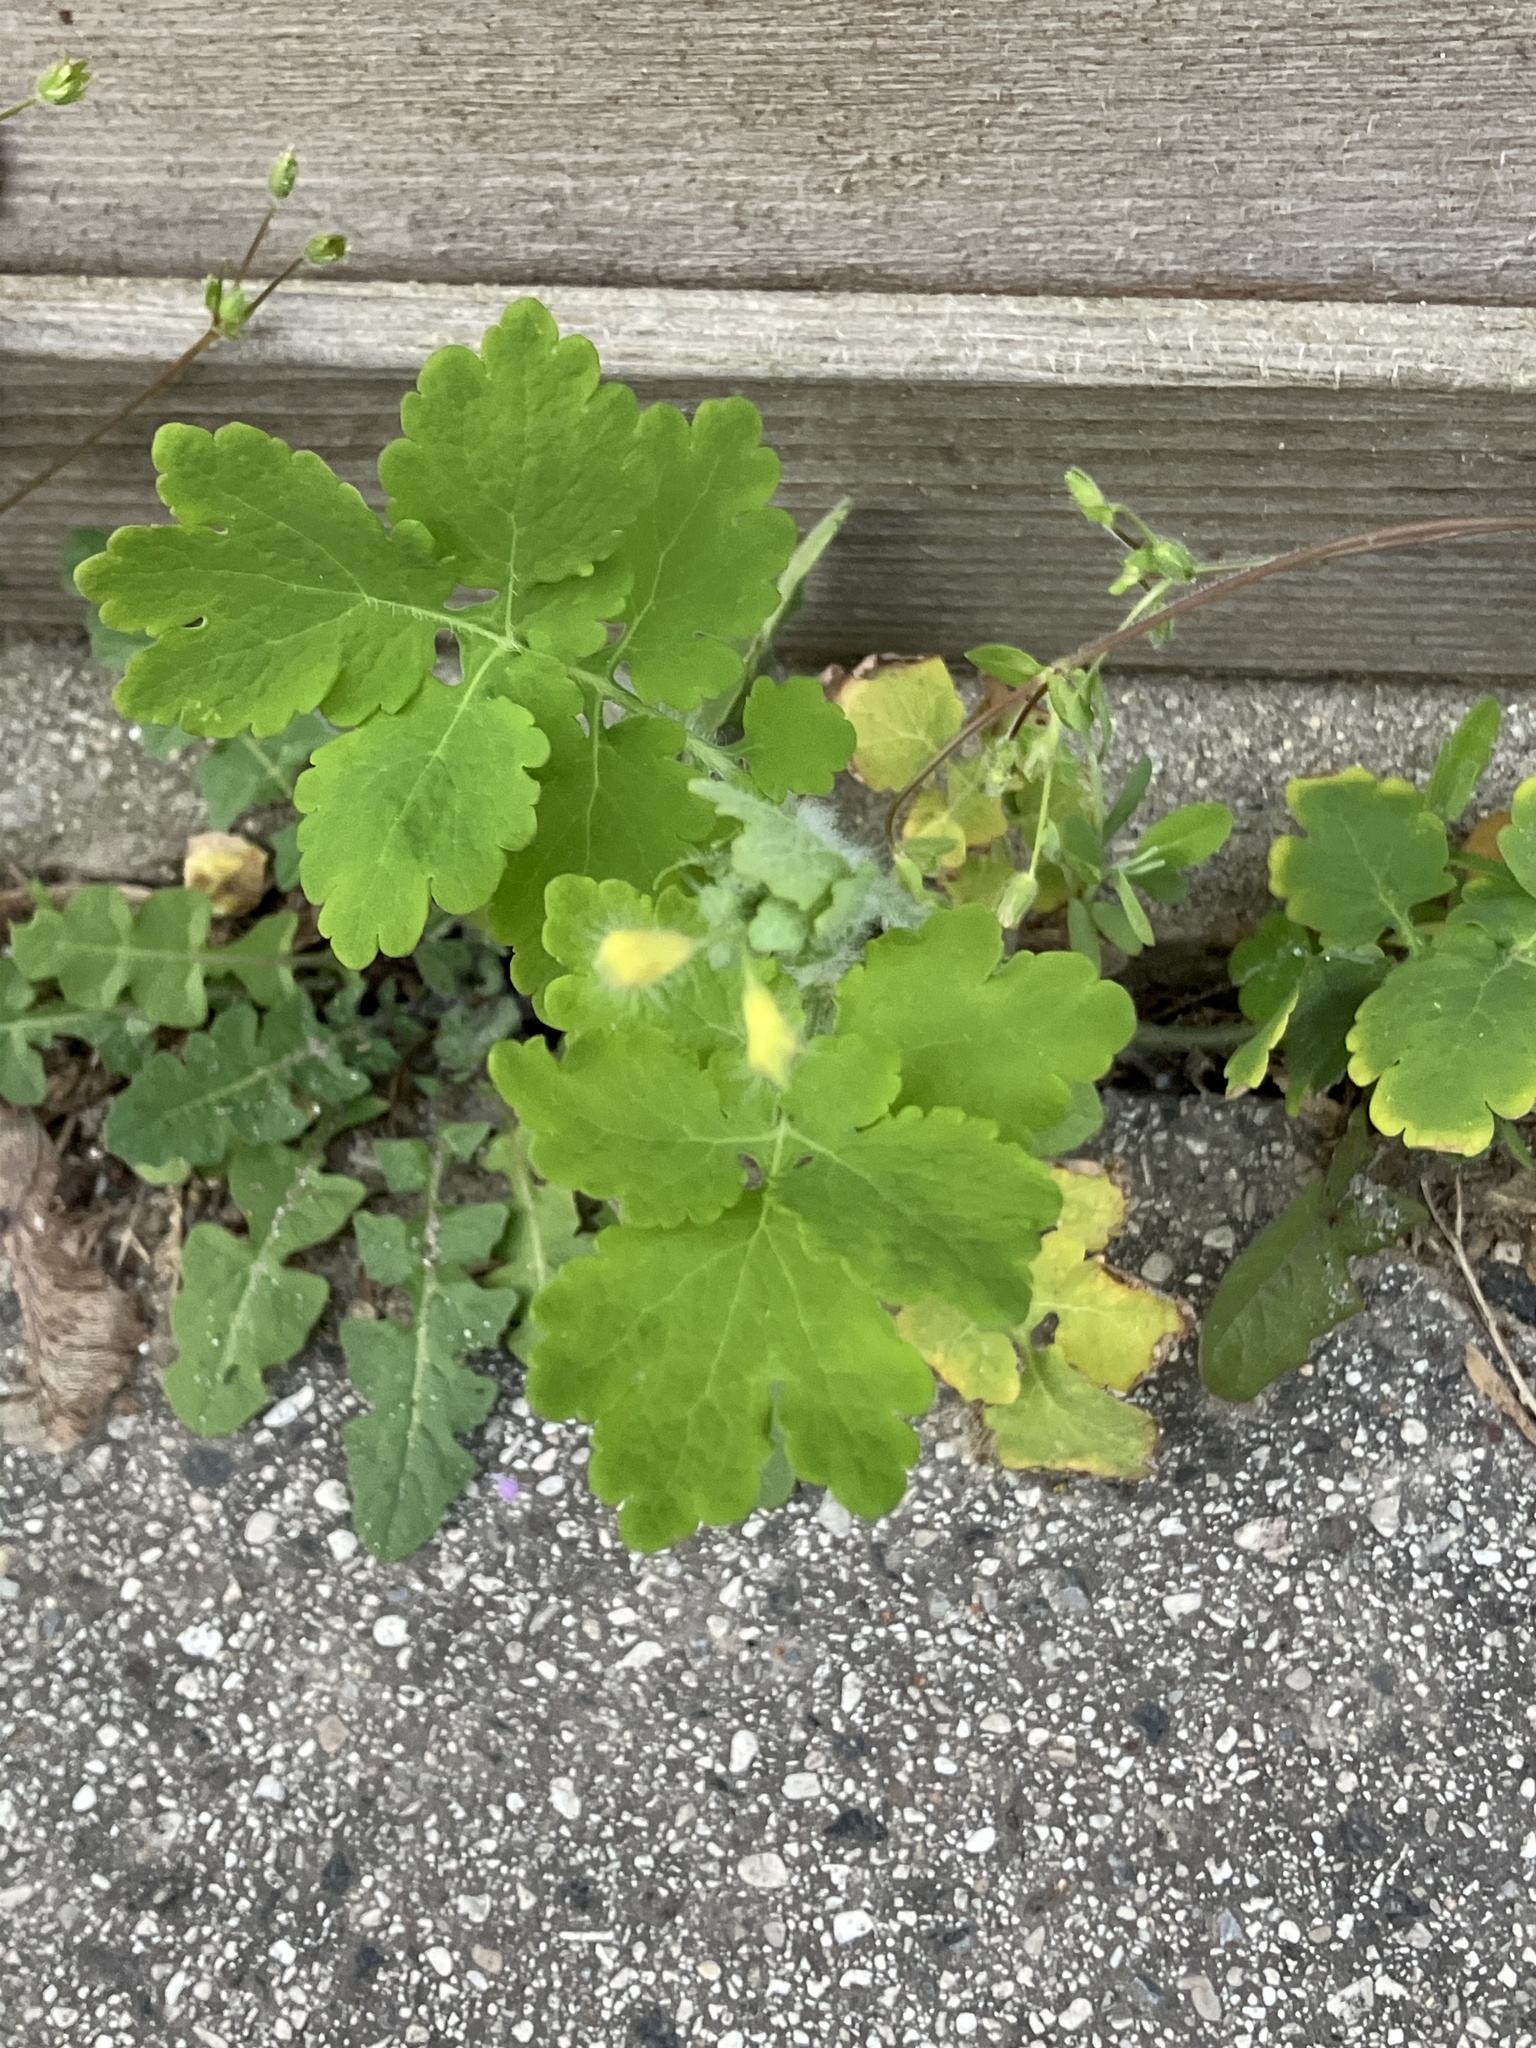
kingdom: Plantae
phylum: Tracheophyta
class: Magnoliopsida
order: Ranunculales
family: Papaveraceae
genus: Chelidonium
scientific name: Chelidonium majus
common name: Greater celandine
